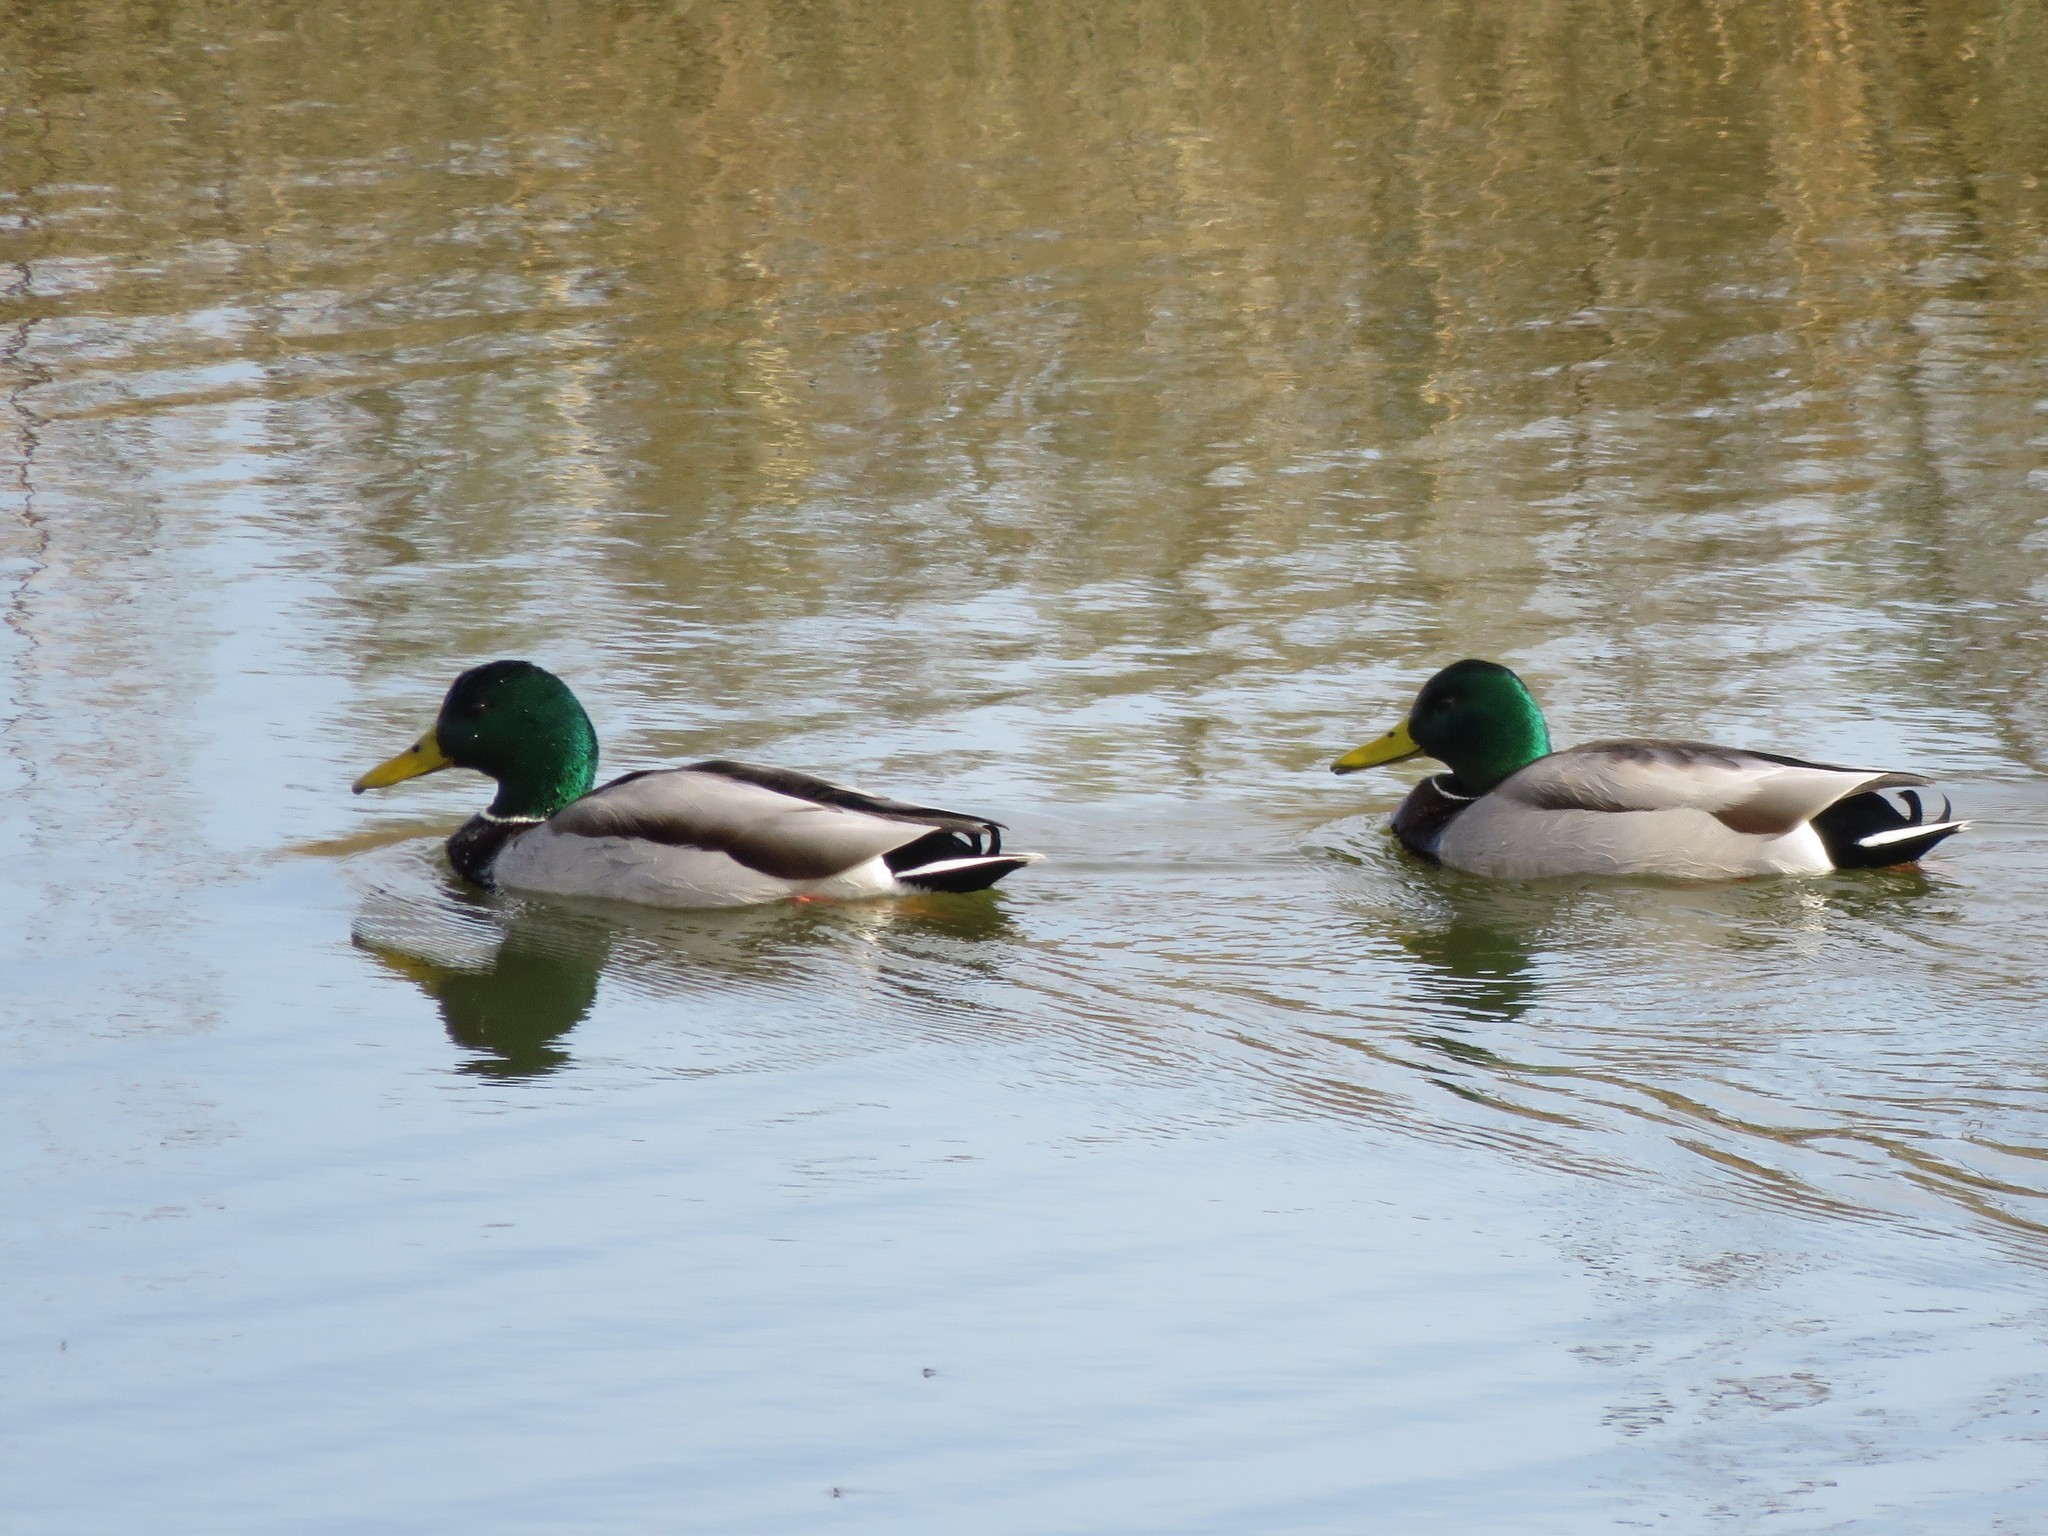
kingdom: Animalia
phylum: Chordata
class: Aves
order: Anseriformes
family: Anatidae
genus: Anas
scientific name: Anas platyrhynchos
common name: Mallard
